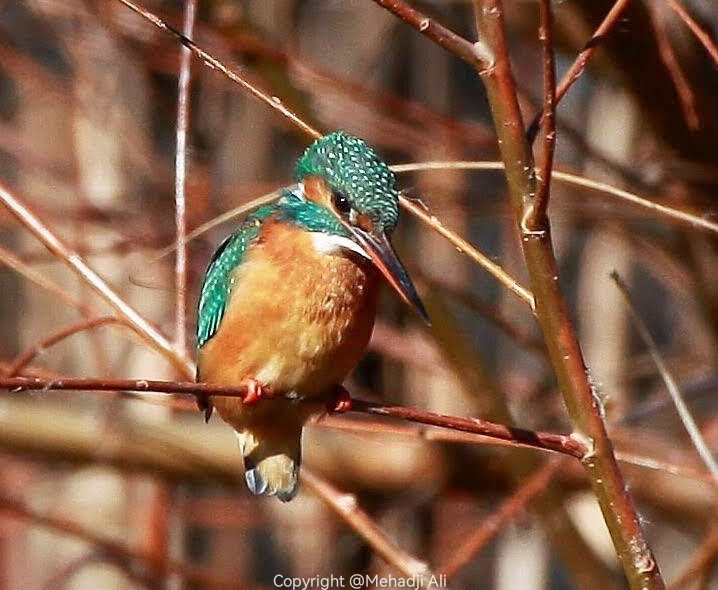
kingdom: Animalia
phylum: Chordata
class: Aves
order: Coraciiformes
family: Alcedinidae
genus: Alcedo
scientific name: Alcedo atthis
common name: Common kingfisher
